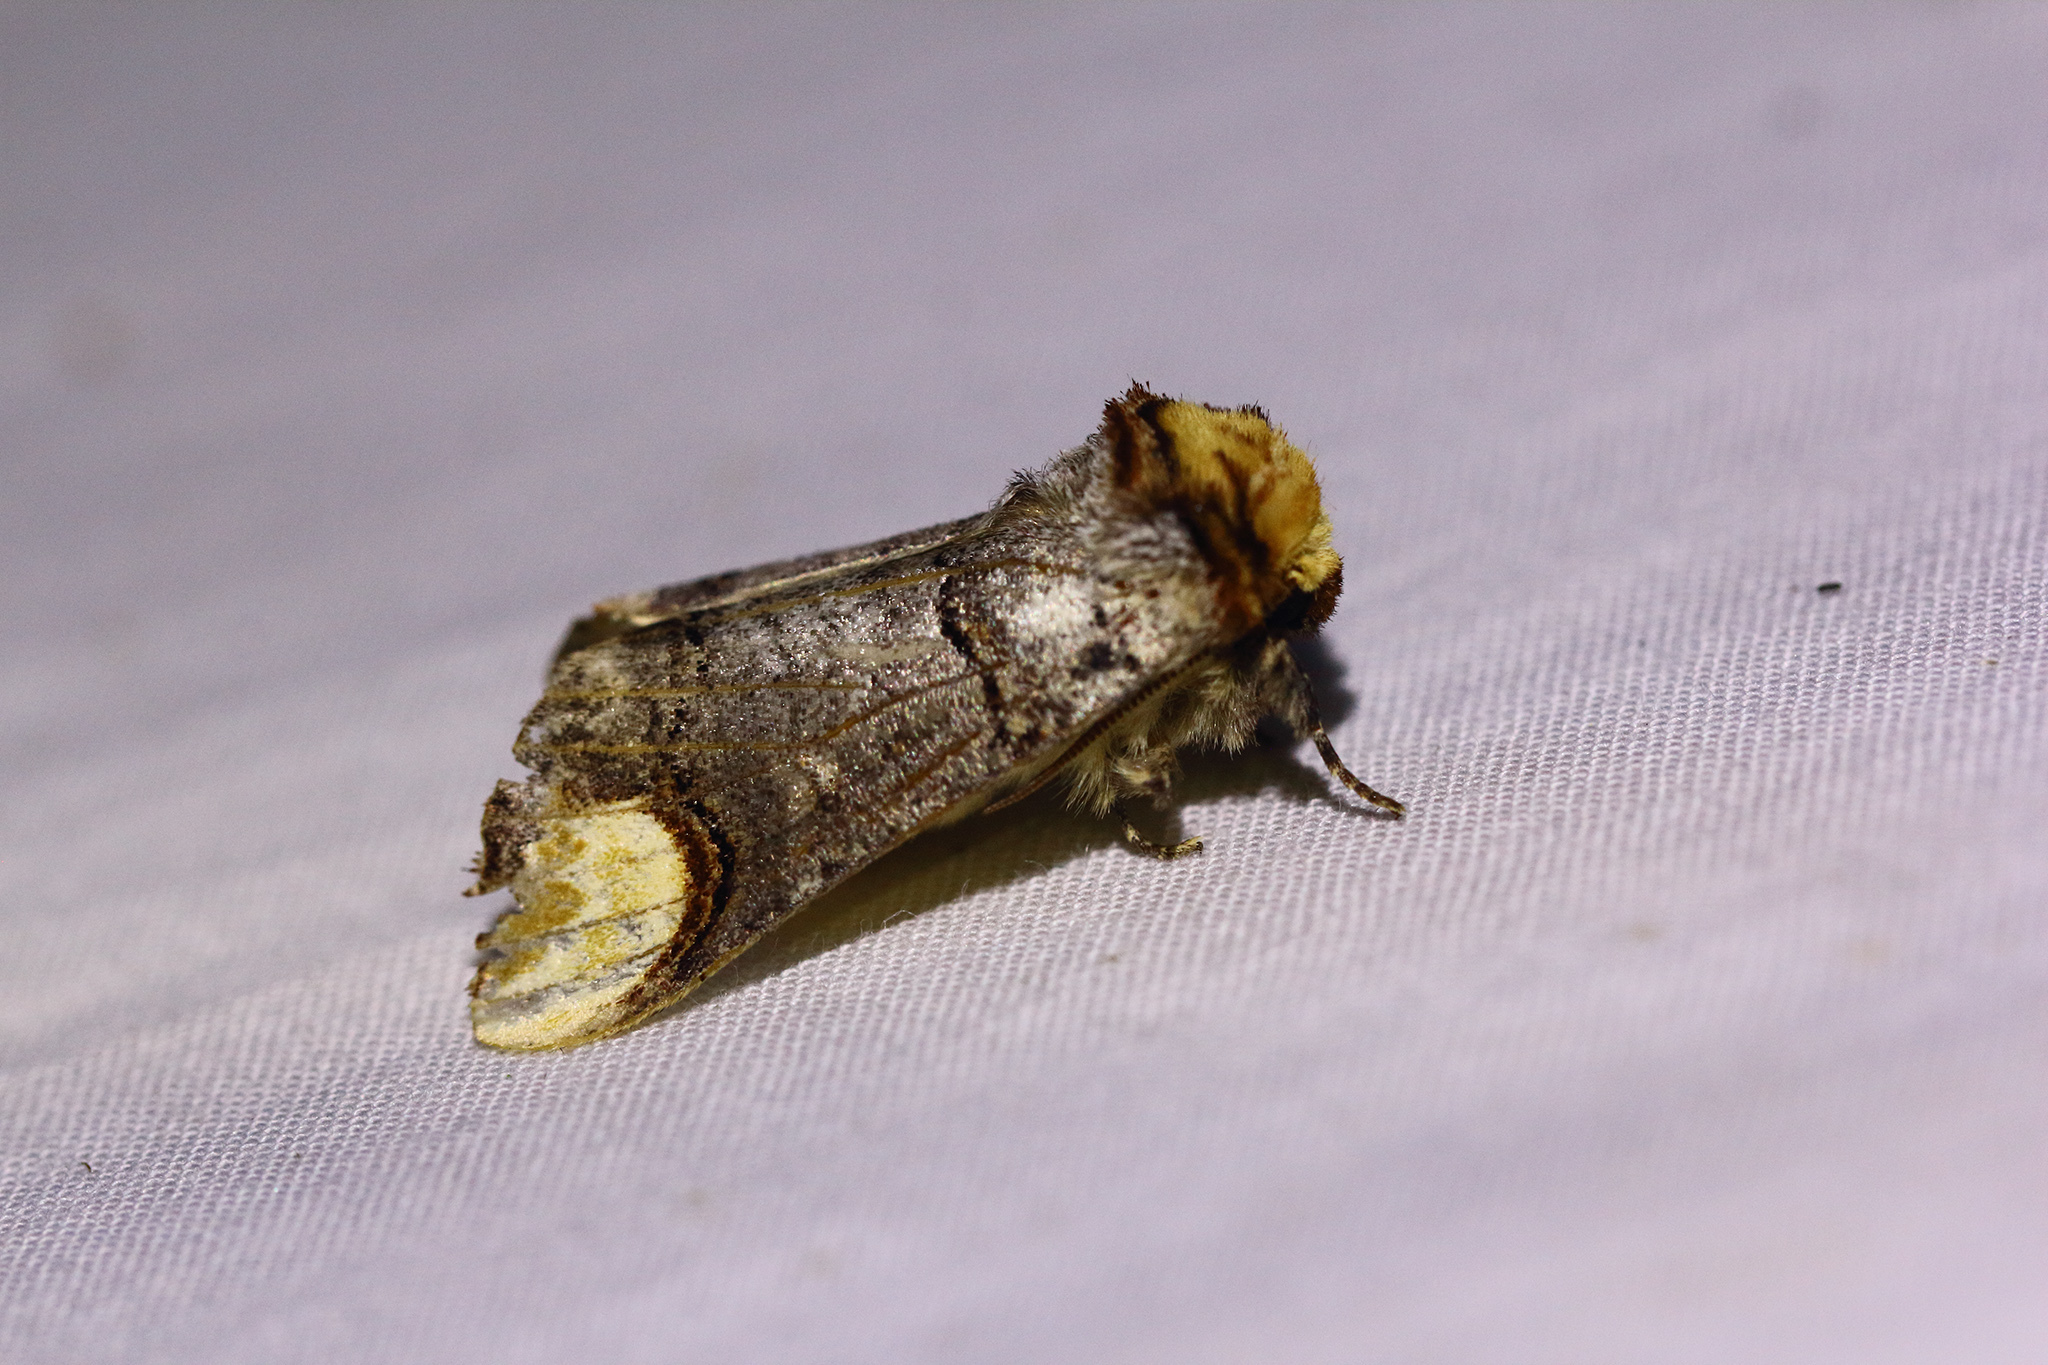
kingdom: Animalia
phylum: Arthropoda
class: Insecta
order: Lepidoptera
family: Notodontidae
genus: Phalera
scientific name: Phalera bucephala
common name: Buff-tip
